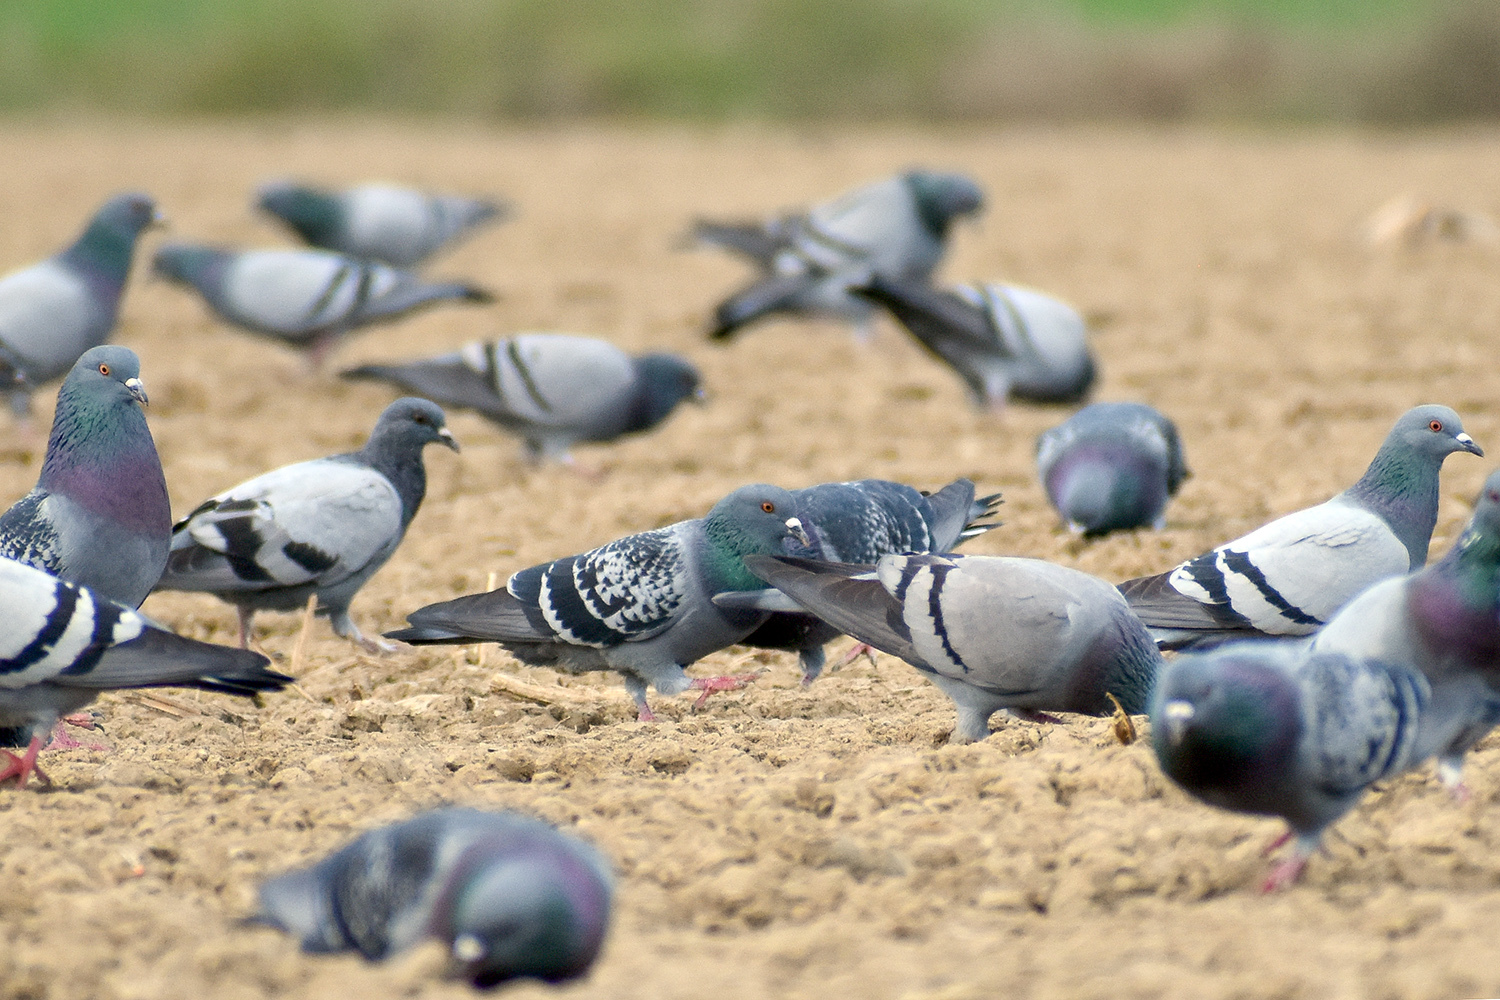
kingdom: Animalia
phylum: Chordata
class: Aves
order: Columbiformes
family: Columbidae
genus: Columba
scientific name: Columba livia
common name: Rock pigeon
